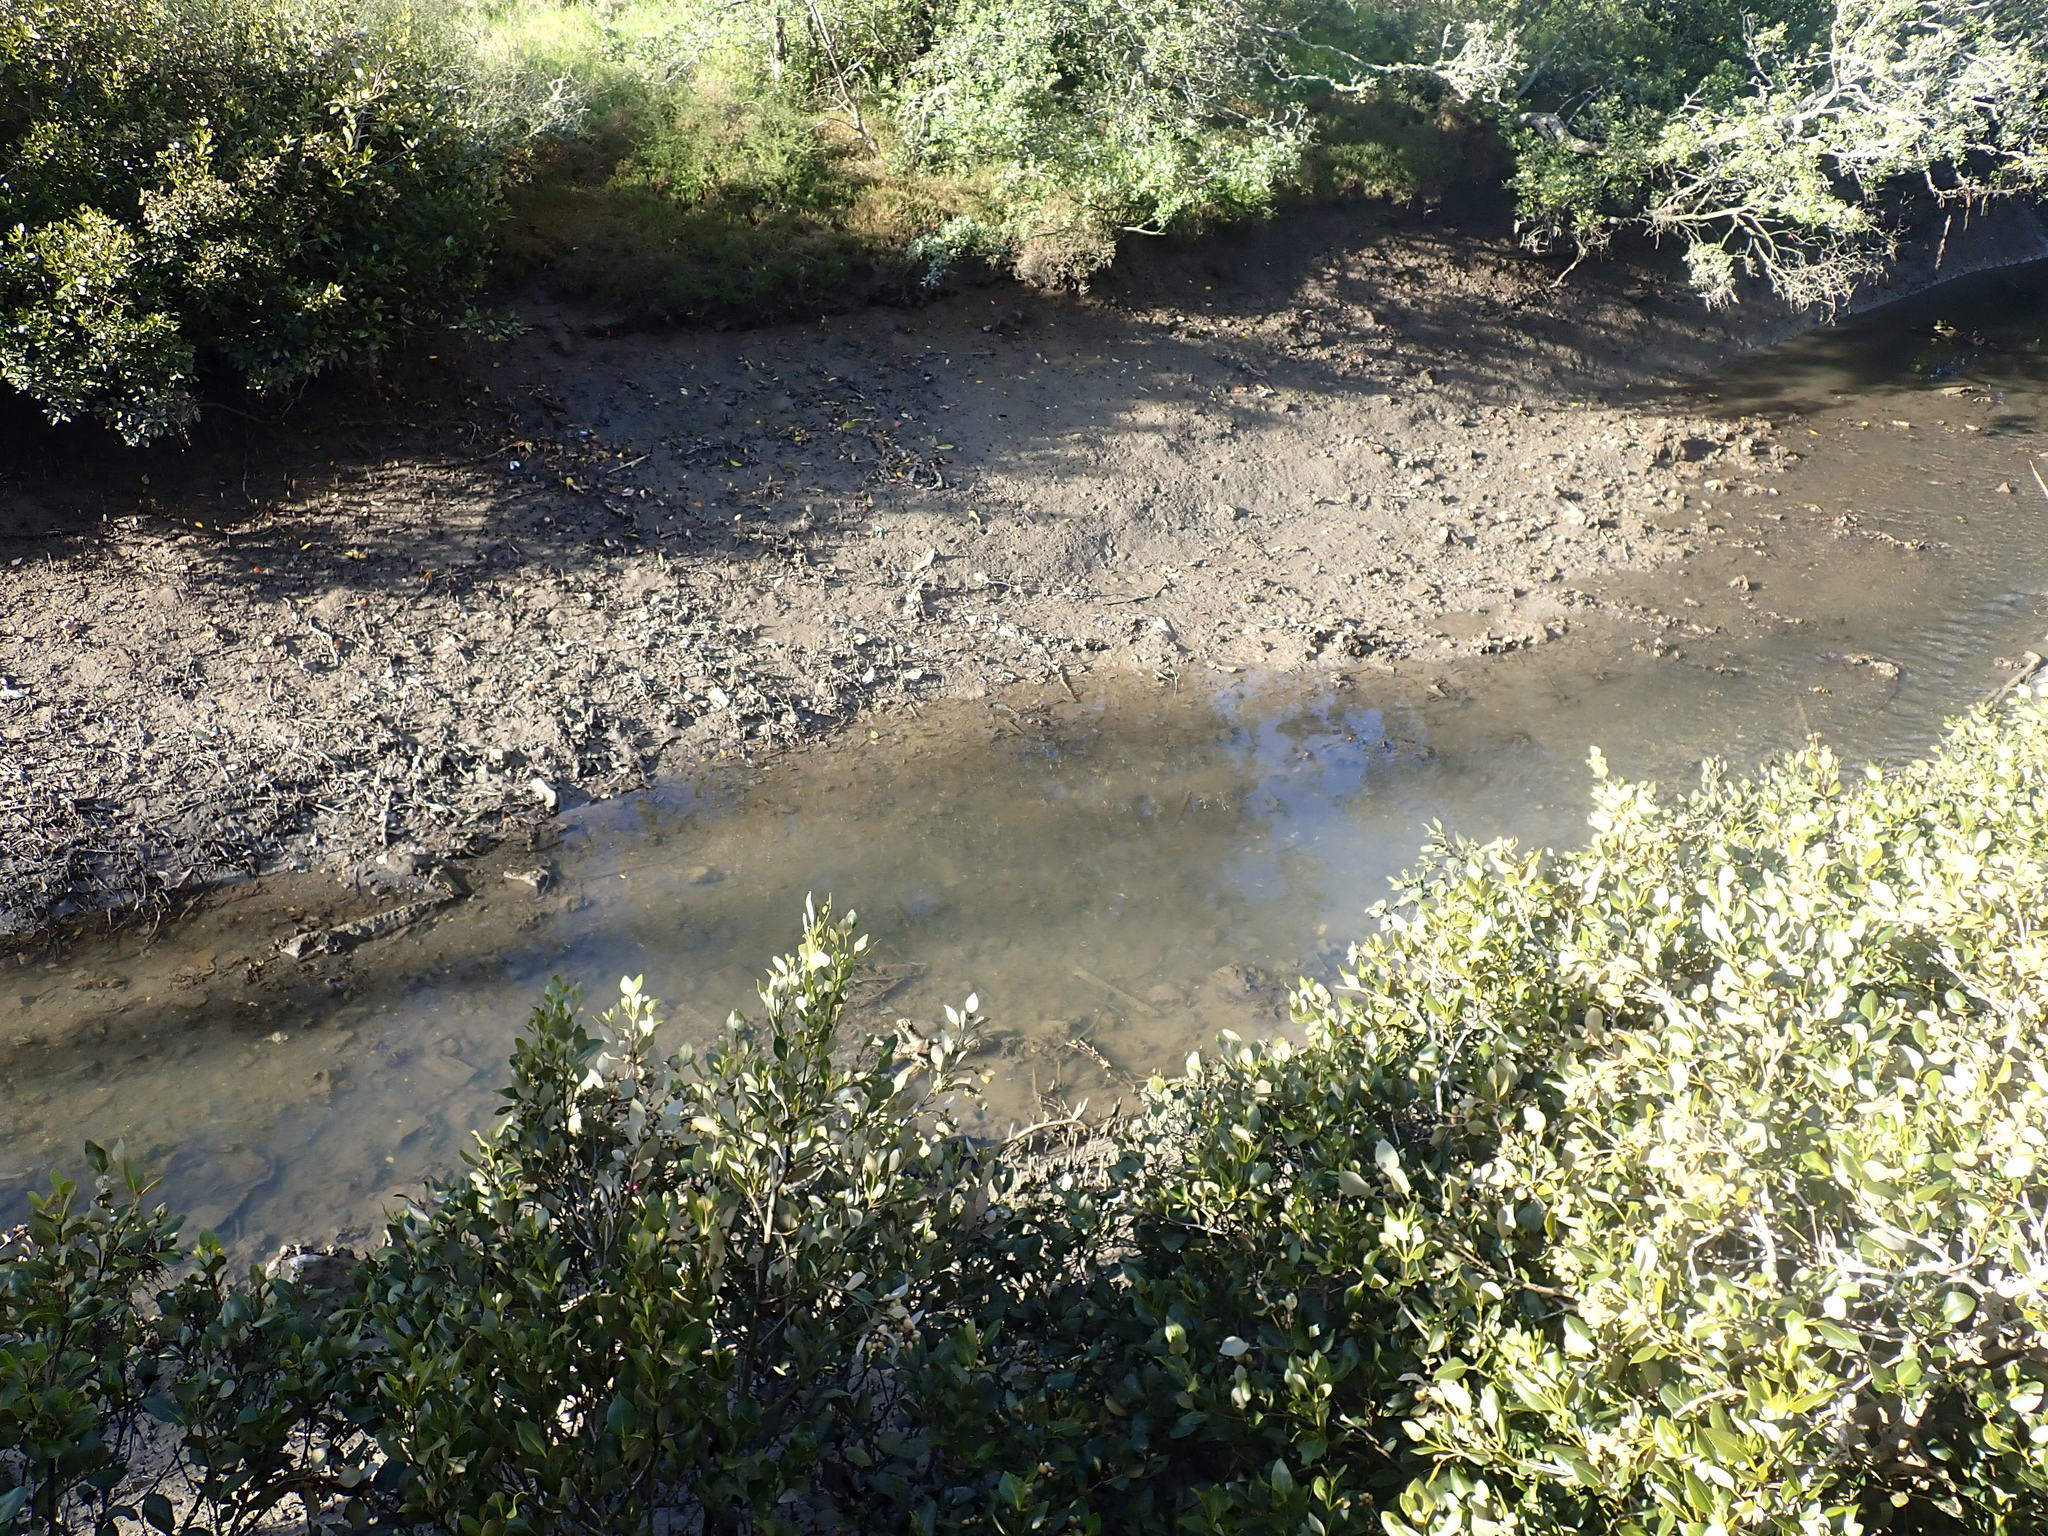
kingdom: Animalia
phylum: Mollusca
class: Bivalvia
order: Ostreida
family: Ostreidae
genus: Magallana
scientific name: Magallana gigas
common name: Pacific oyster
